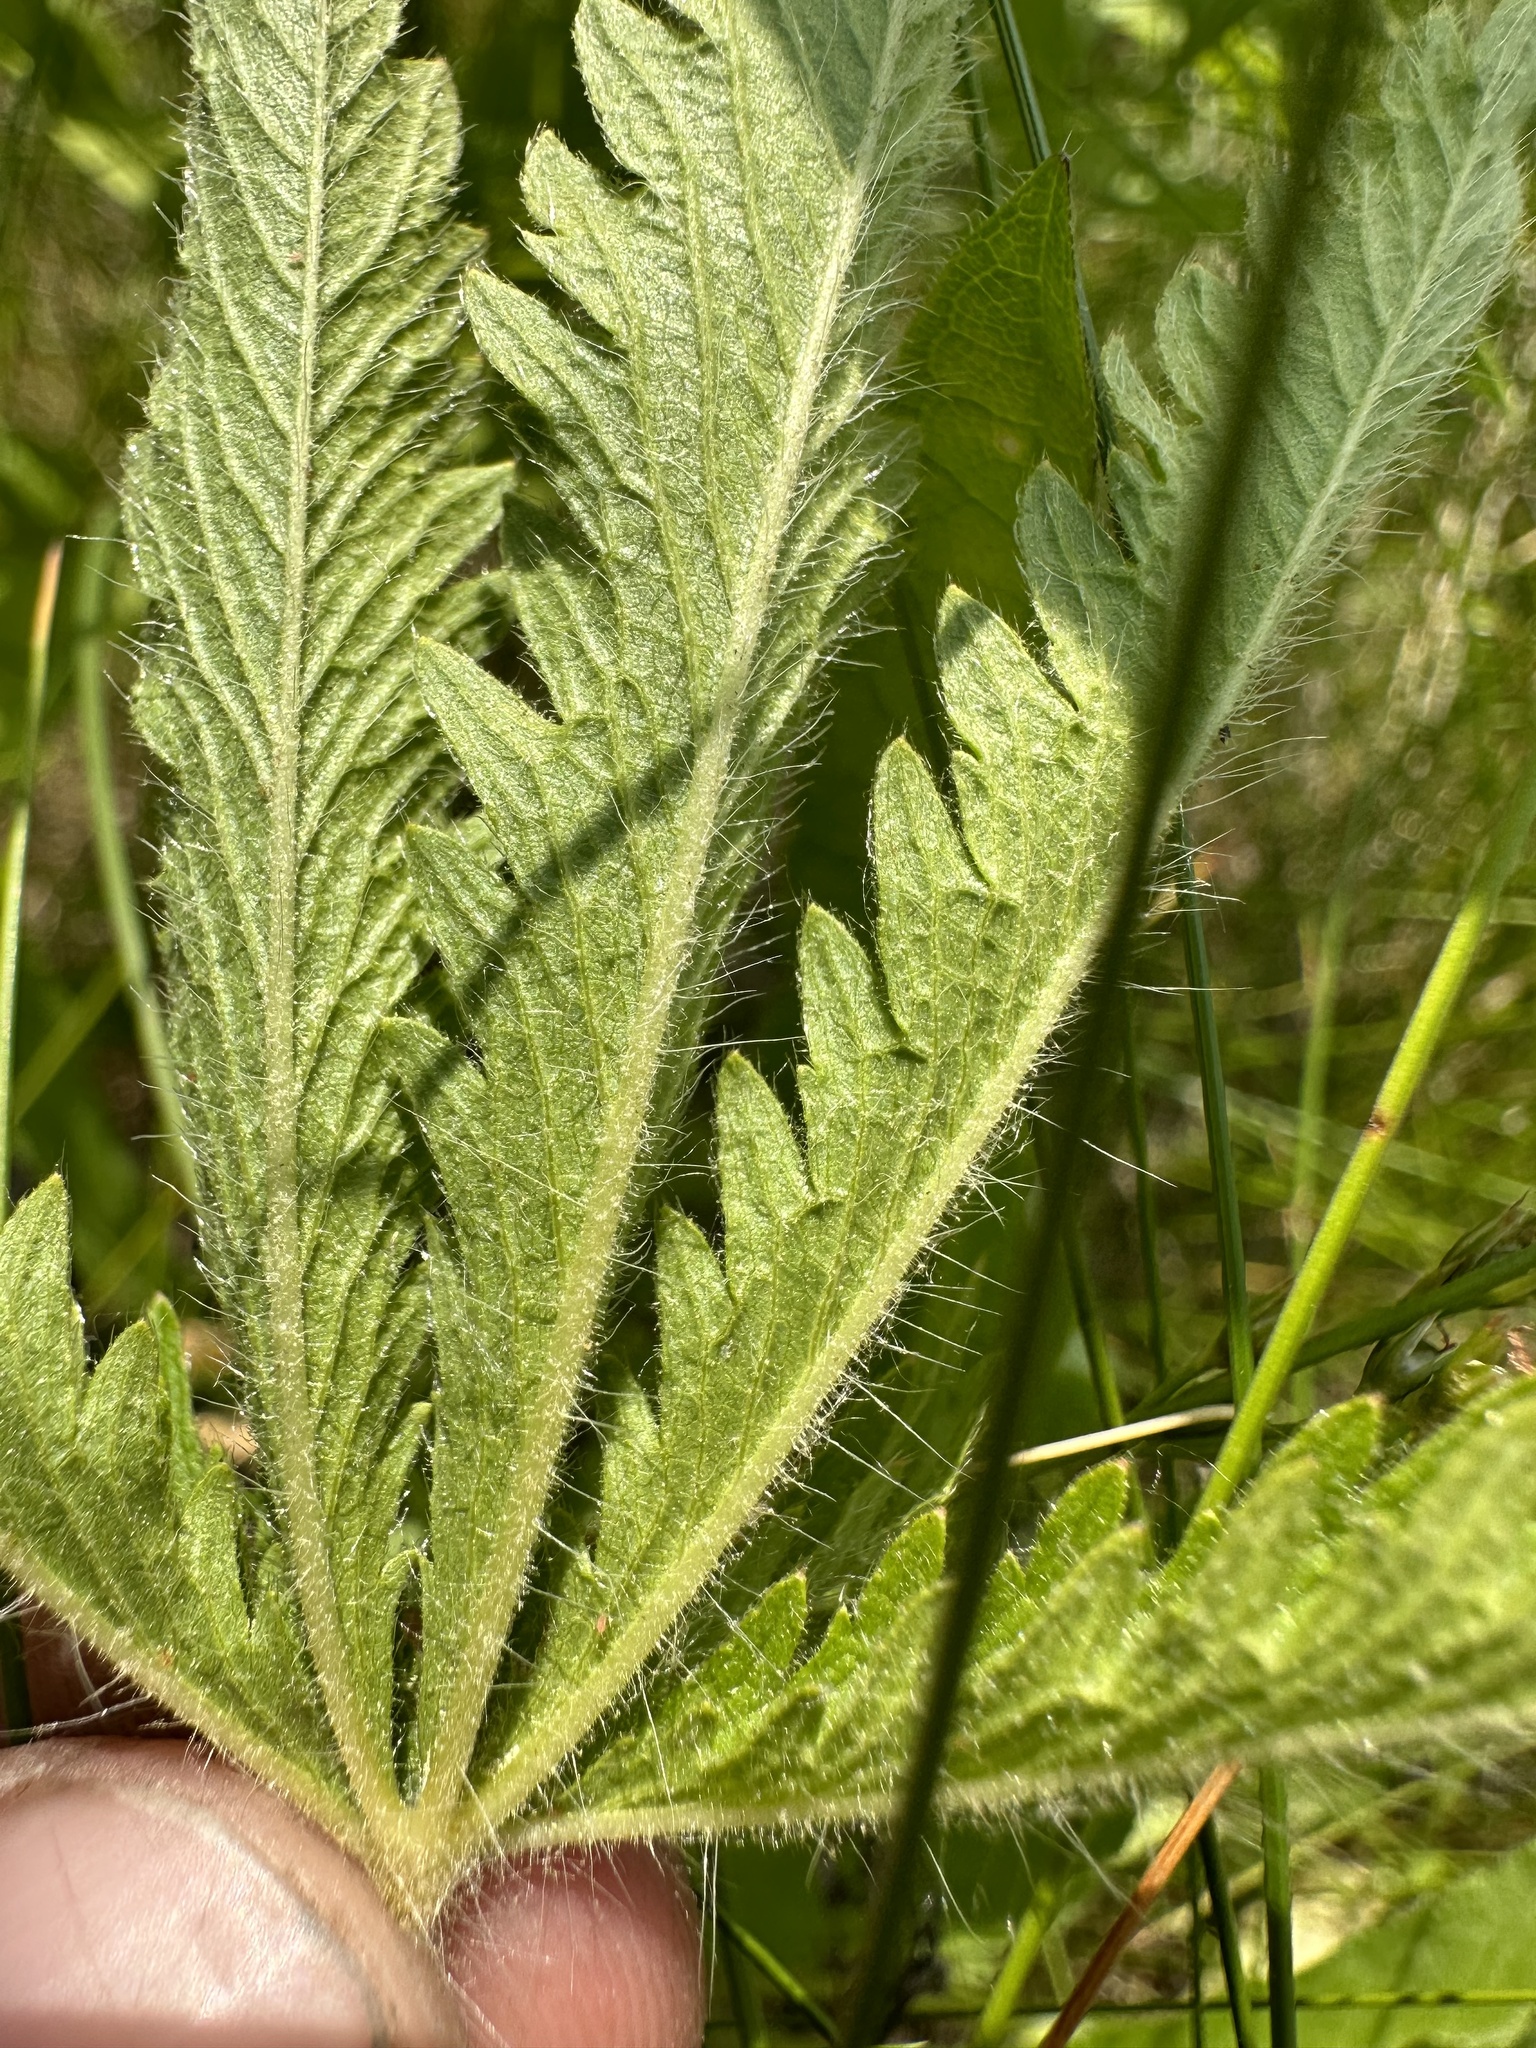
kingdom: Plantae
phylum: Tracheophyta
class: Magnoliopsida
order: Rosales
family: Rosaceae
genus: Potentilla
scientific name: Potentilla recta
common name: Sulphur cinquefoil
